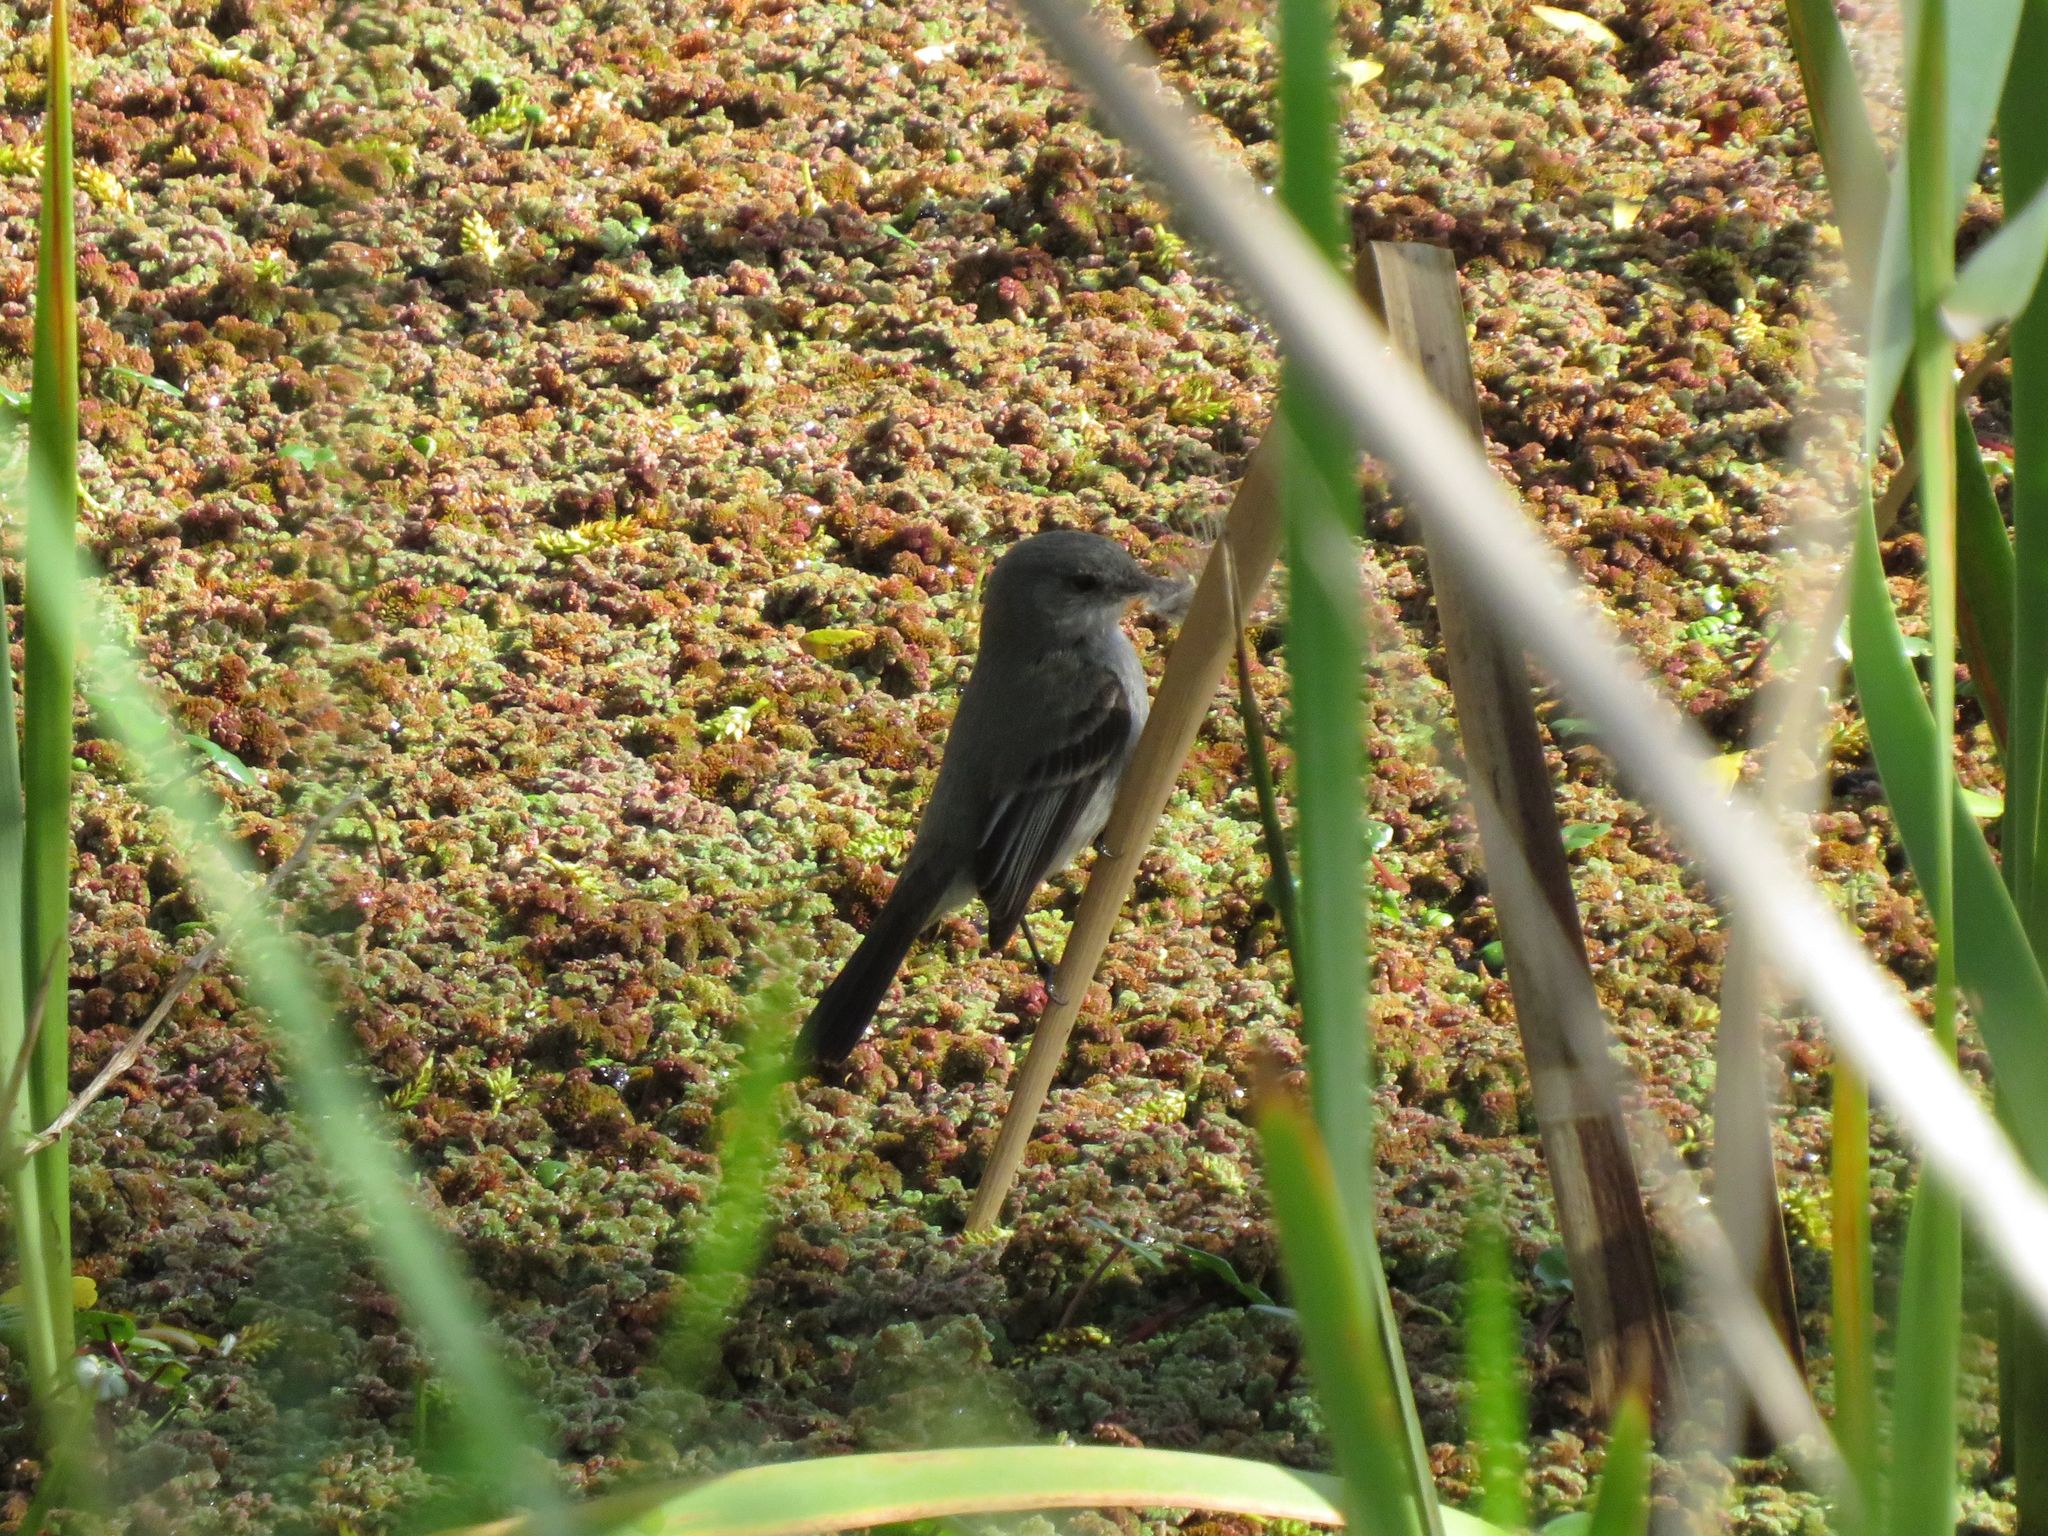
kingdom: Animalia
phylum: Chordata
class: Aves
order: Passeriformes
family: Tyrannidae
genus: Serpophaga
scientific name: Serpophaga nigricans
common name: Sooty tyrannulet
